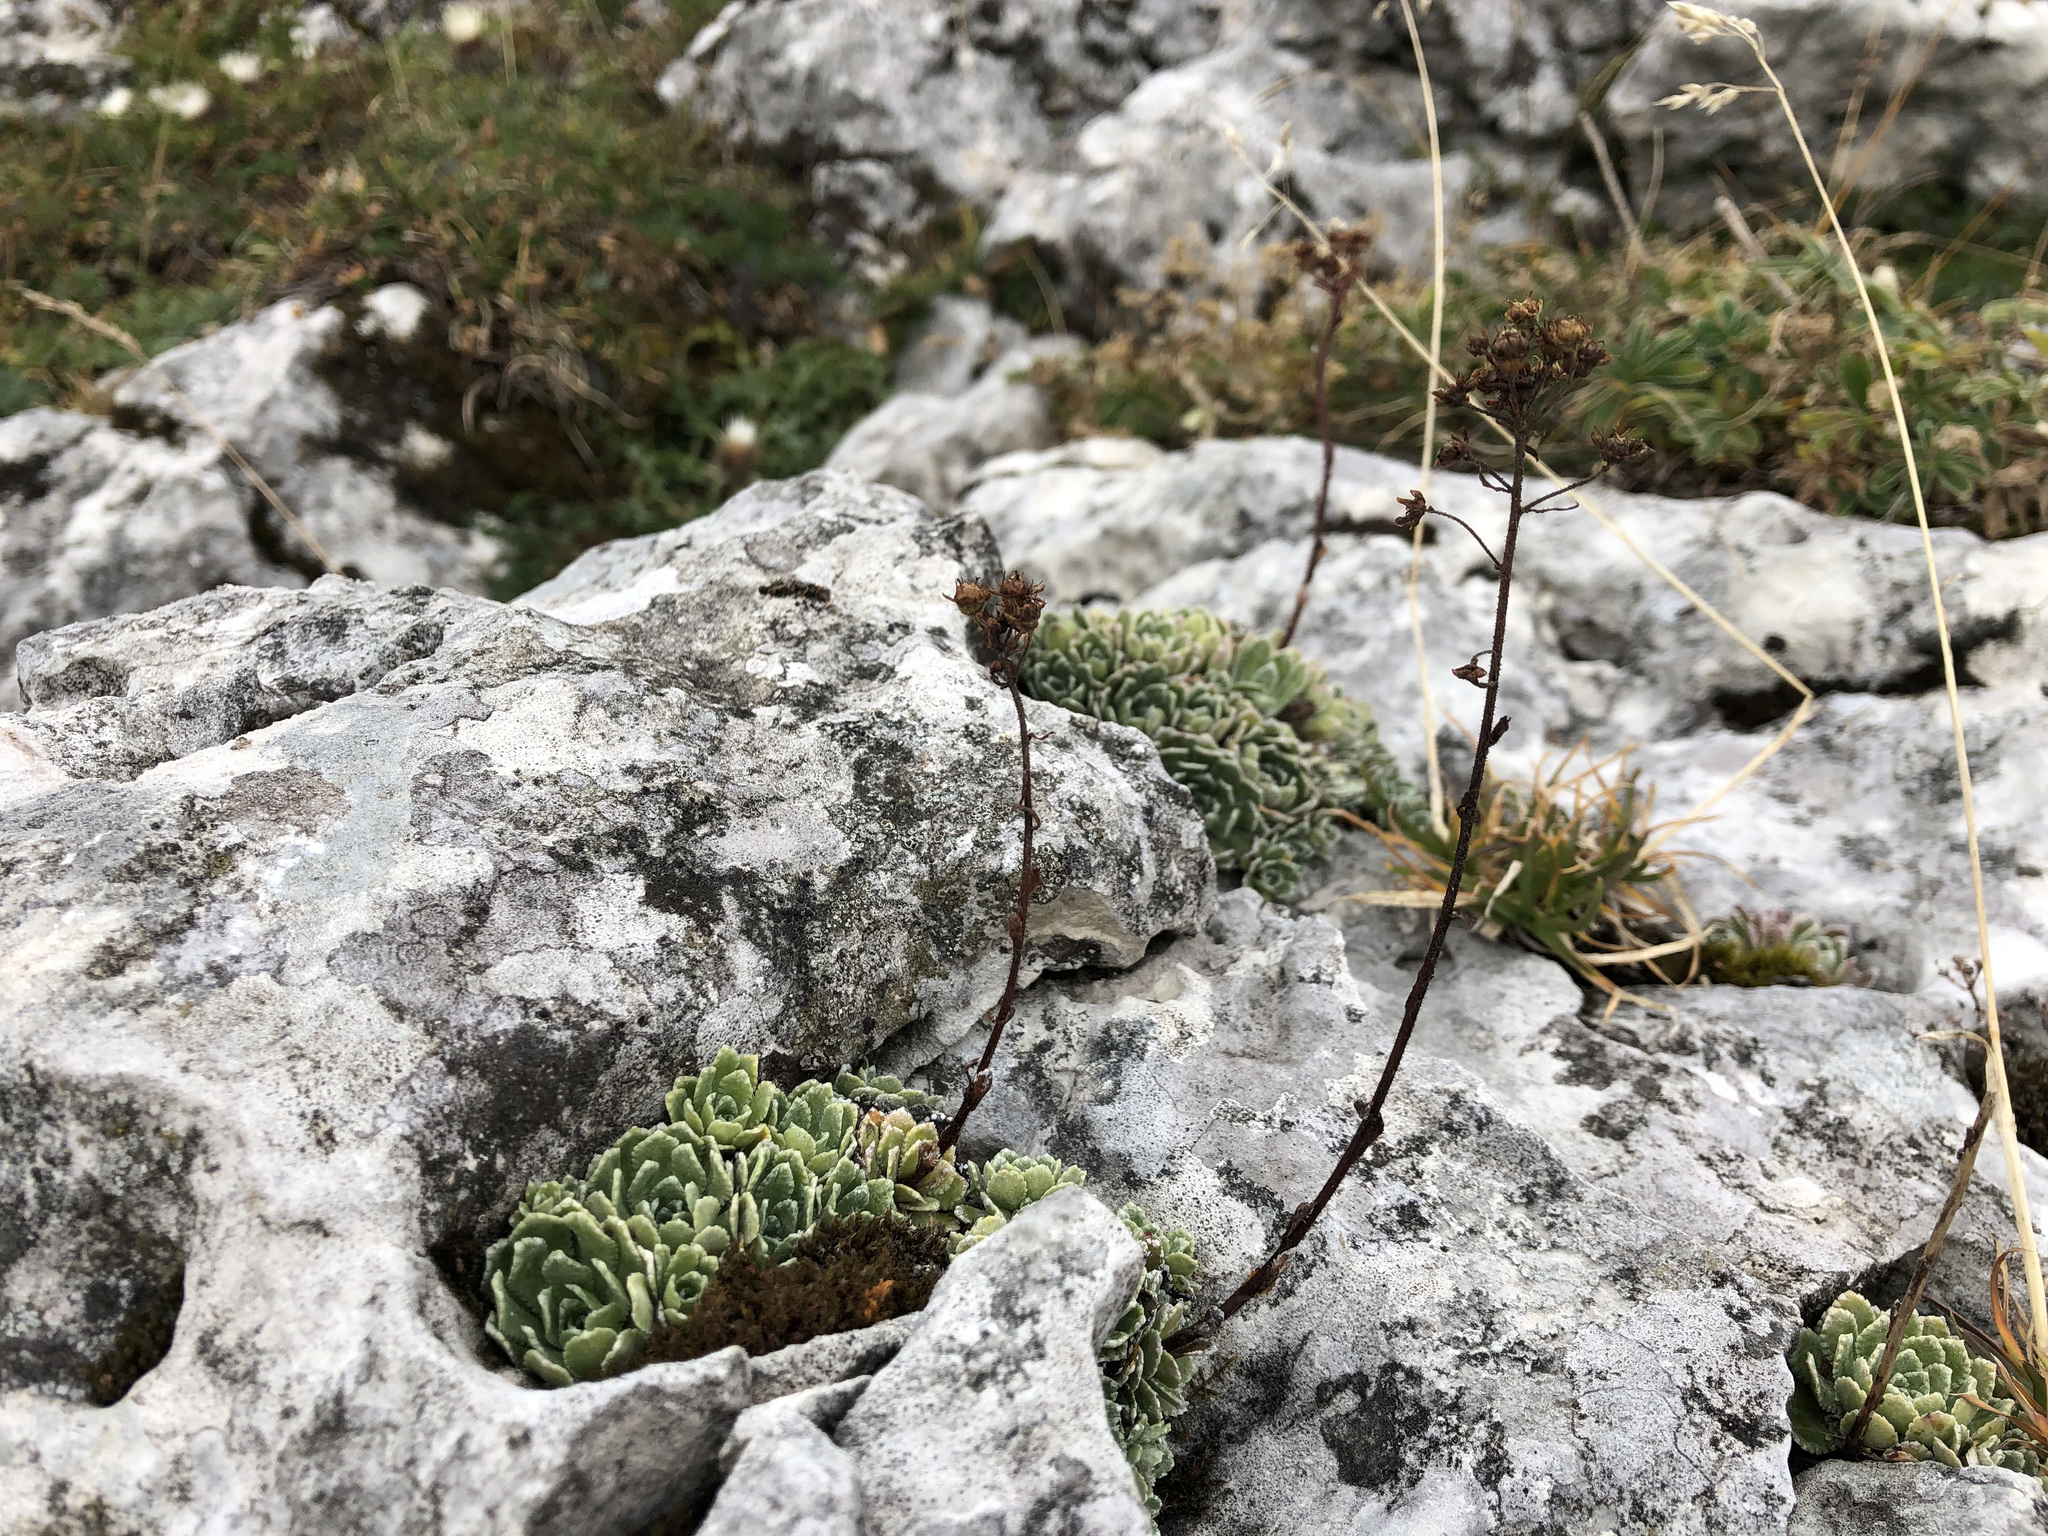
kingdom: Plantae
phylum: Tracheophyta
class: Magnoliopsida
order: Saxifragales
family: Saxifragaceae
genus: Saxifraga
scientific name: Saxifraga paniculata
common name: Livelong saxifrage
